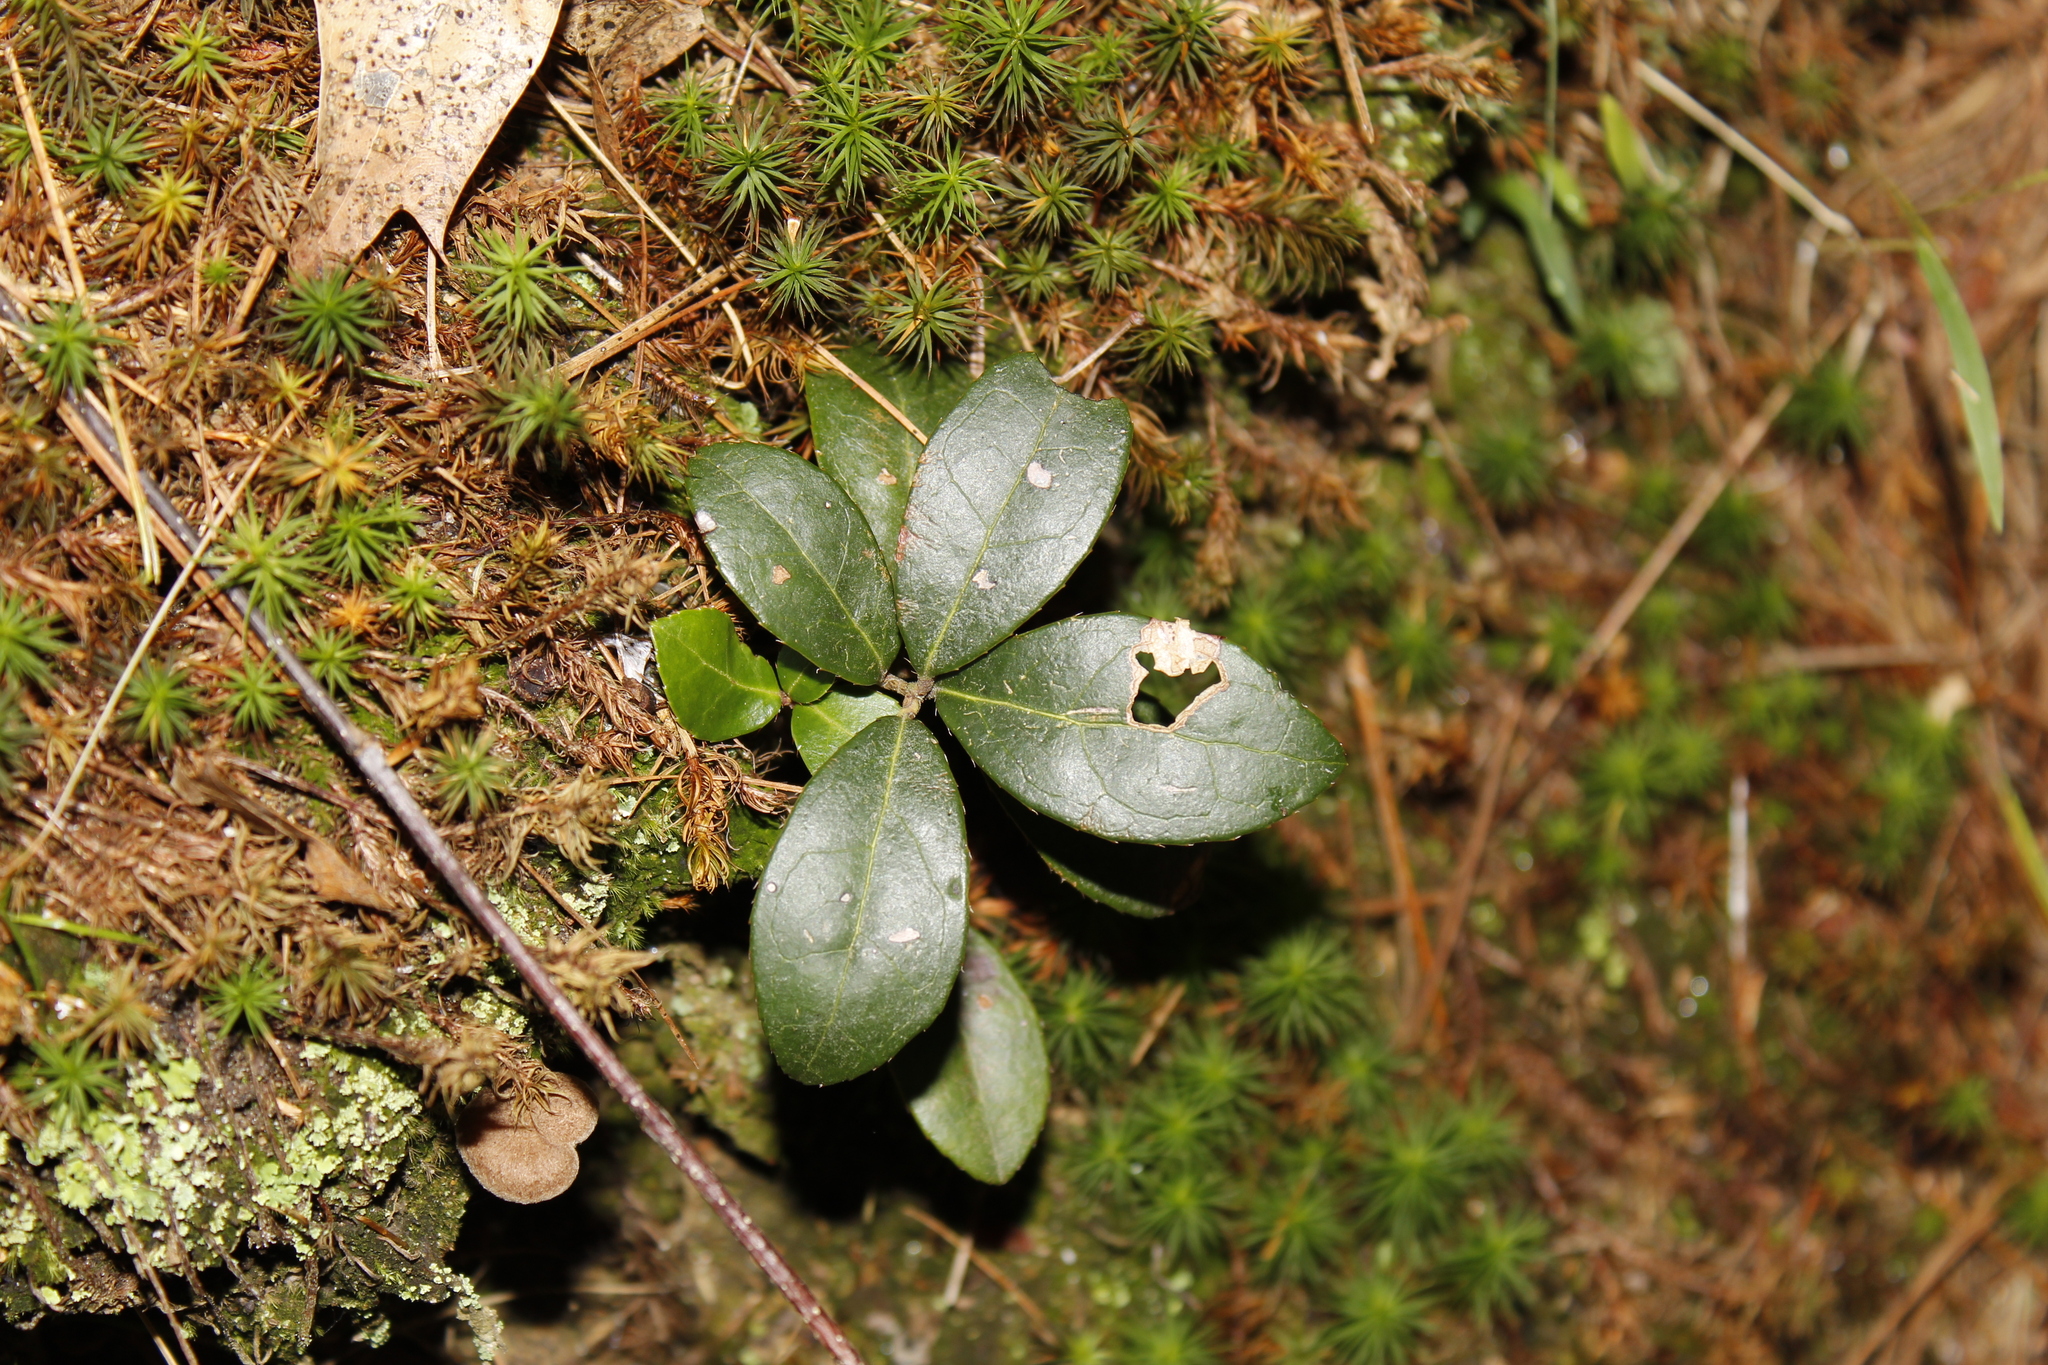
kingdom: Plantae
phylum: Tracheophyta
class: Magnoliopsida
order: Ericales
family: Ericaceae
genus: Gaultheria
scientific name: Gaultheria procumbens
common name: Checkerberry
